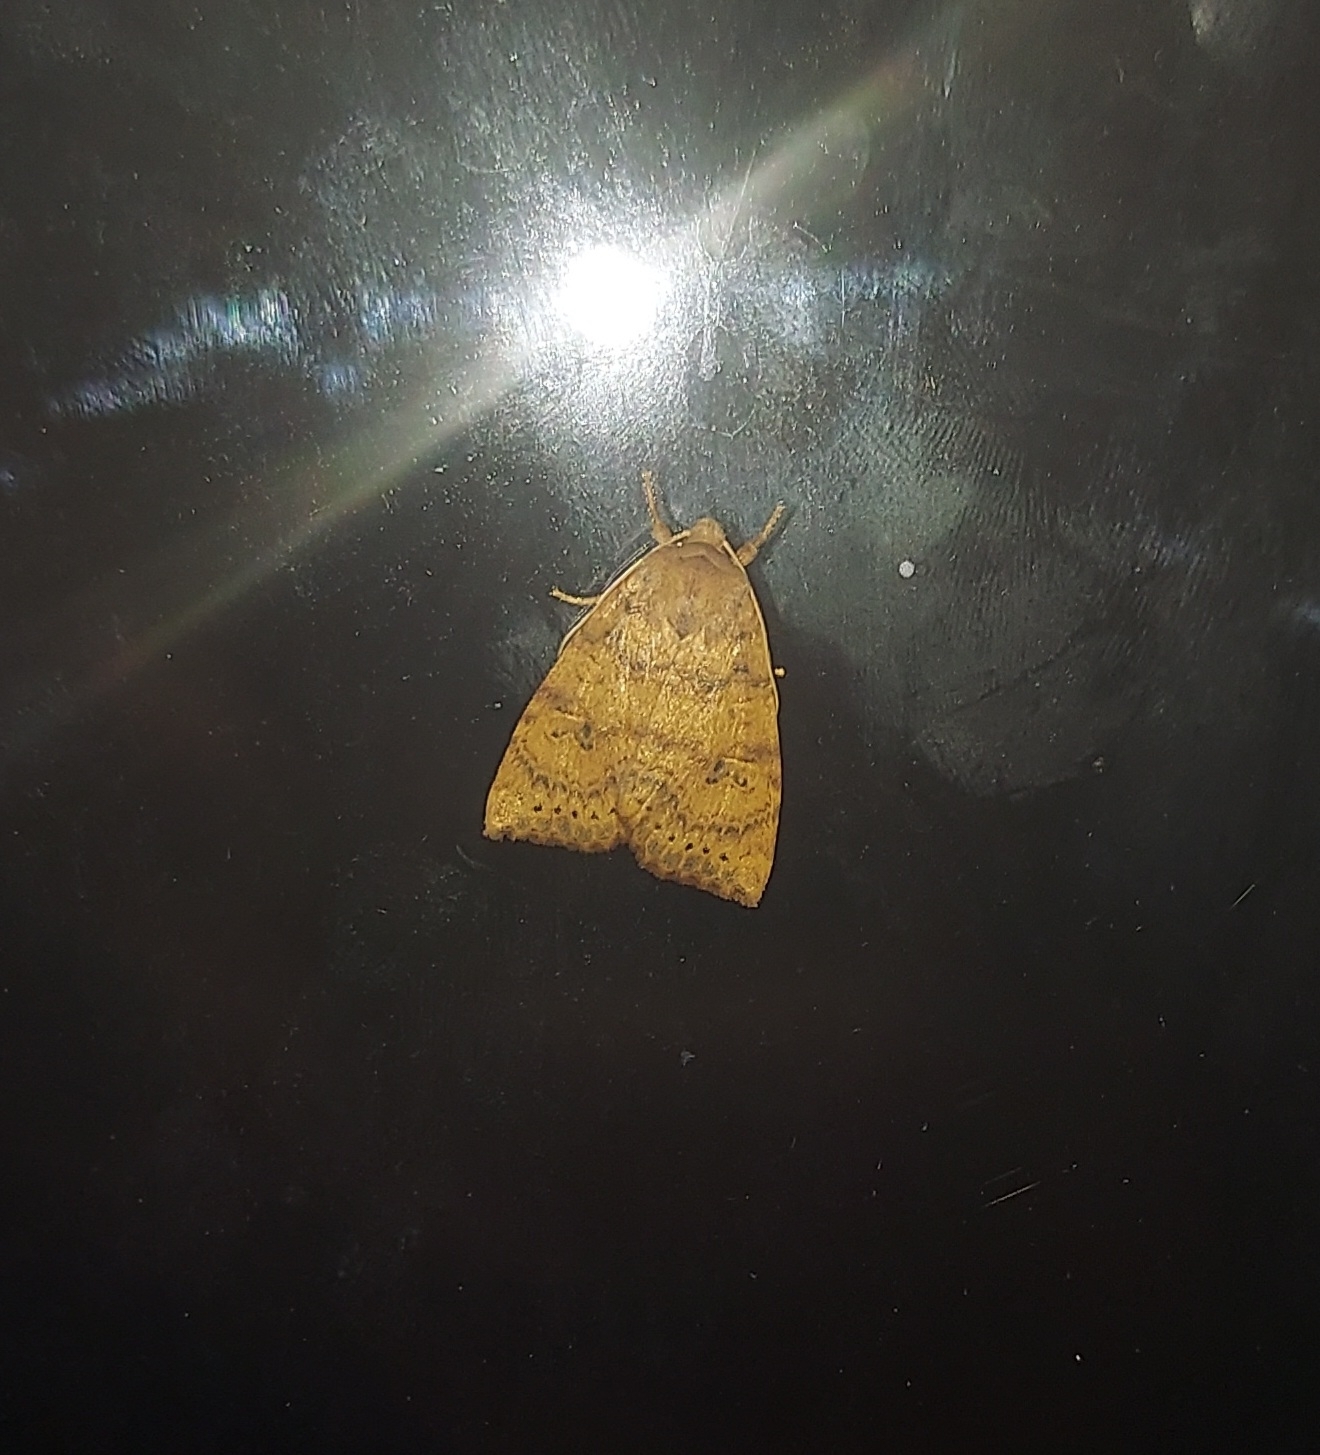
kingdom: Animalia
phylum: Arthropoda
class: Insecta
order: Lepidoptera
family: Noctuidae
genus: Anathix
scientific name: Anathix ralla
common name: Dotted sallow
